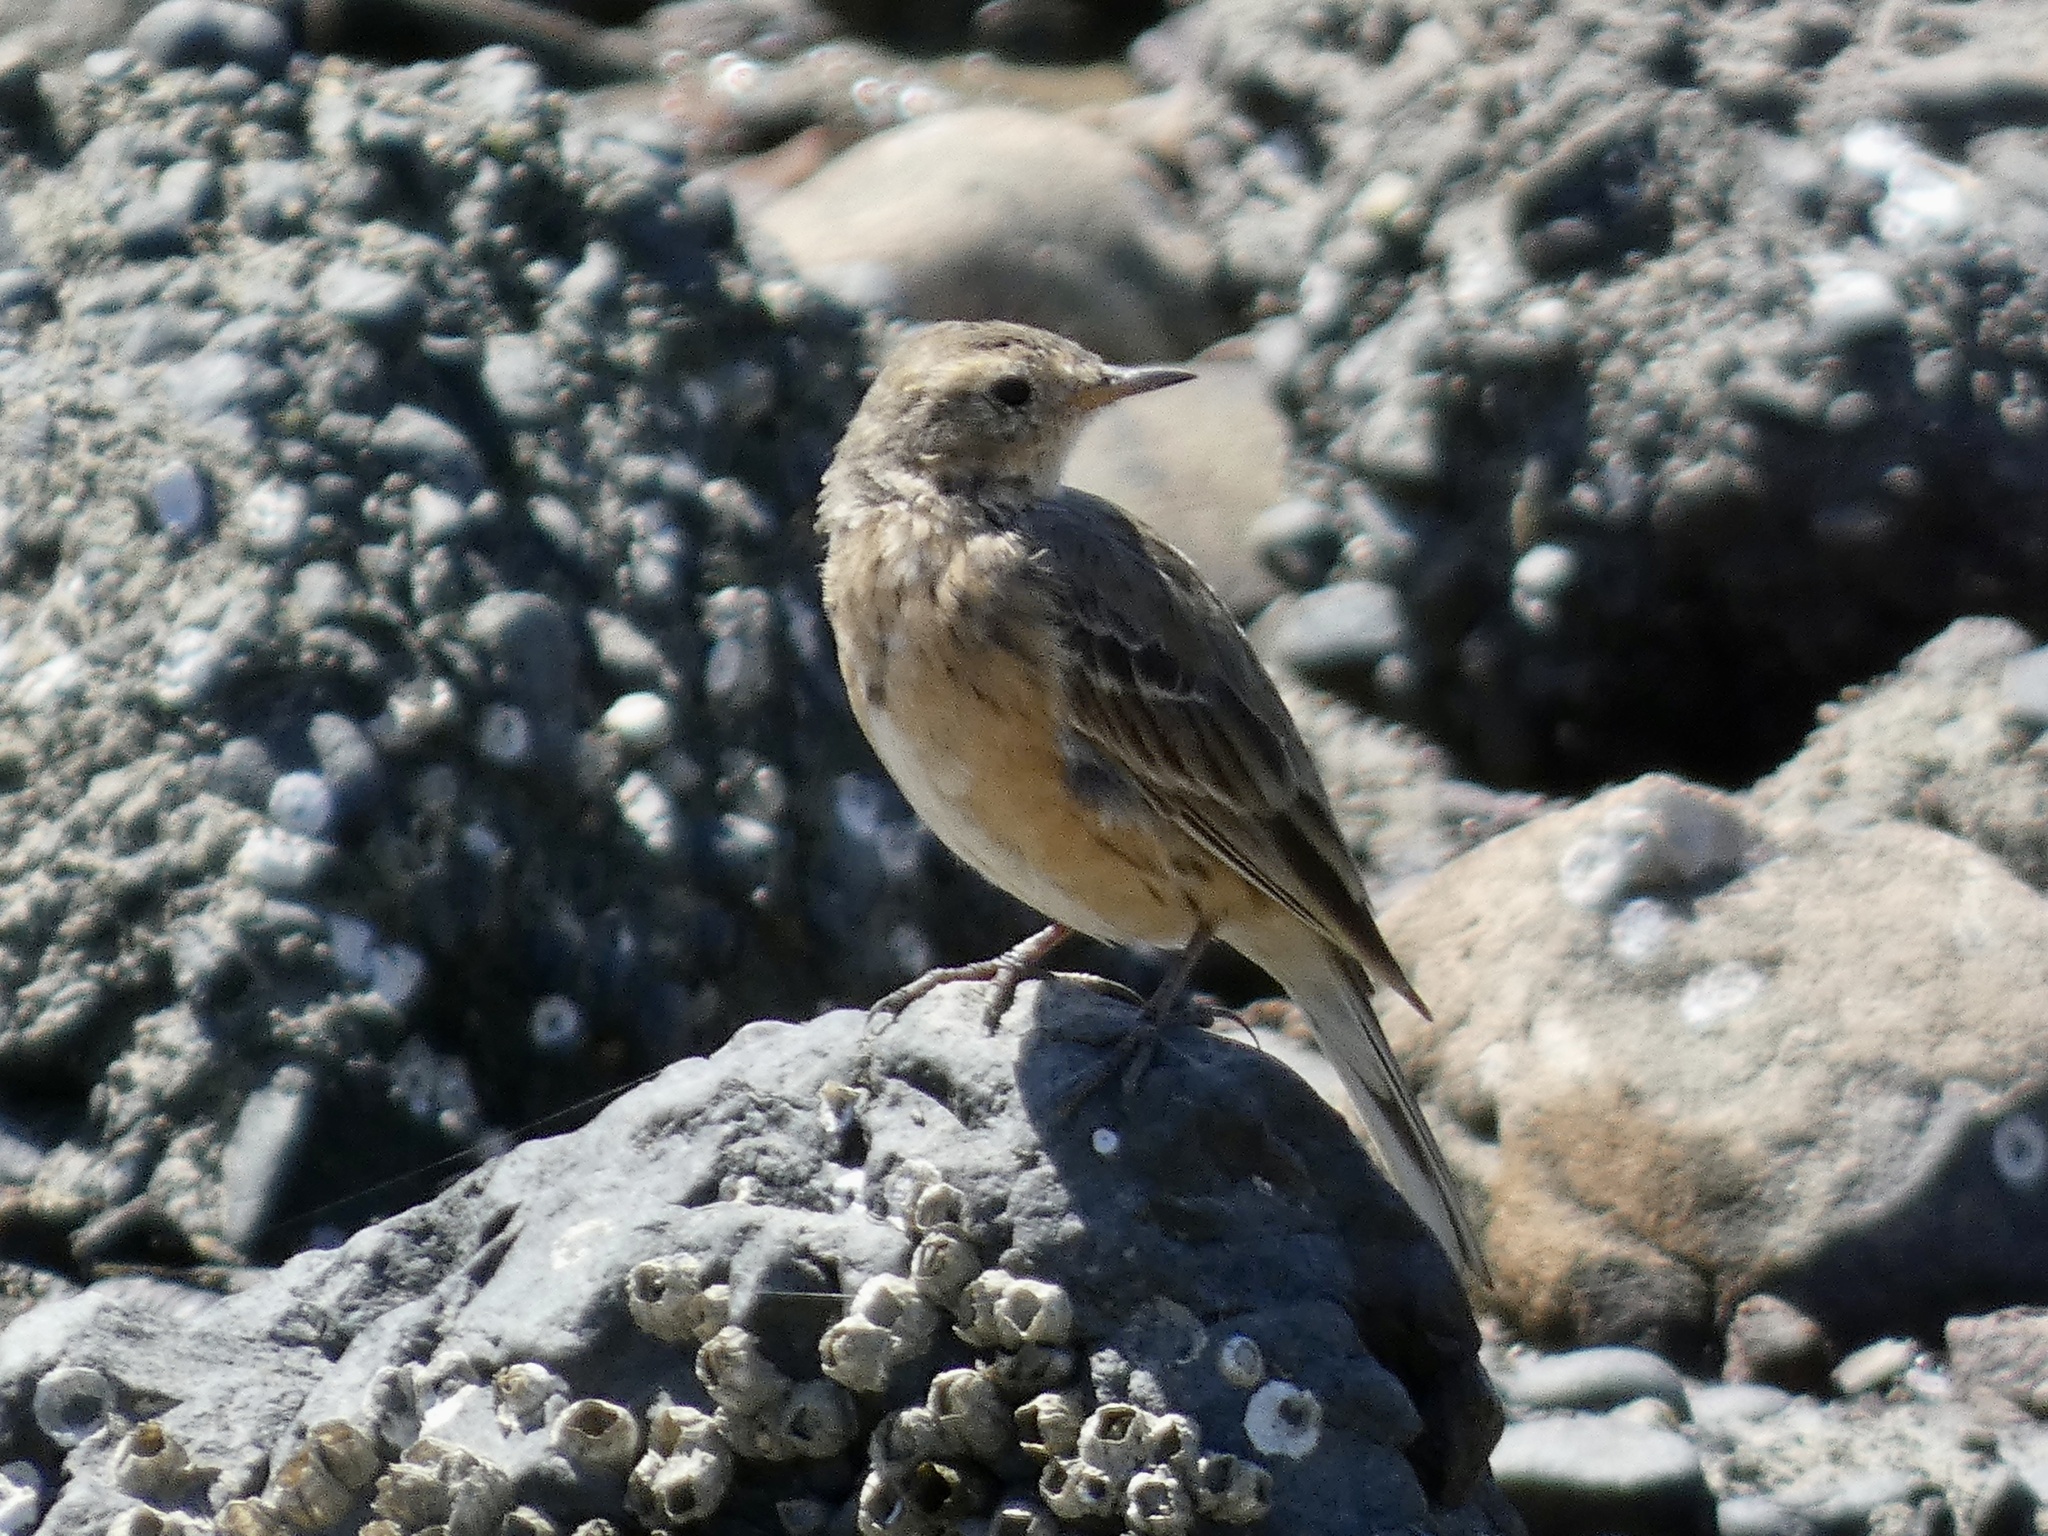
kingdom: Animalia
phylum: Chordata
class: Aves
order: Passeriformes
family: Motacillidae
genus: Anthus
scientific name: Anthus rubescens
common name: Buff-bellied pipit
